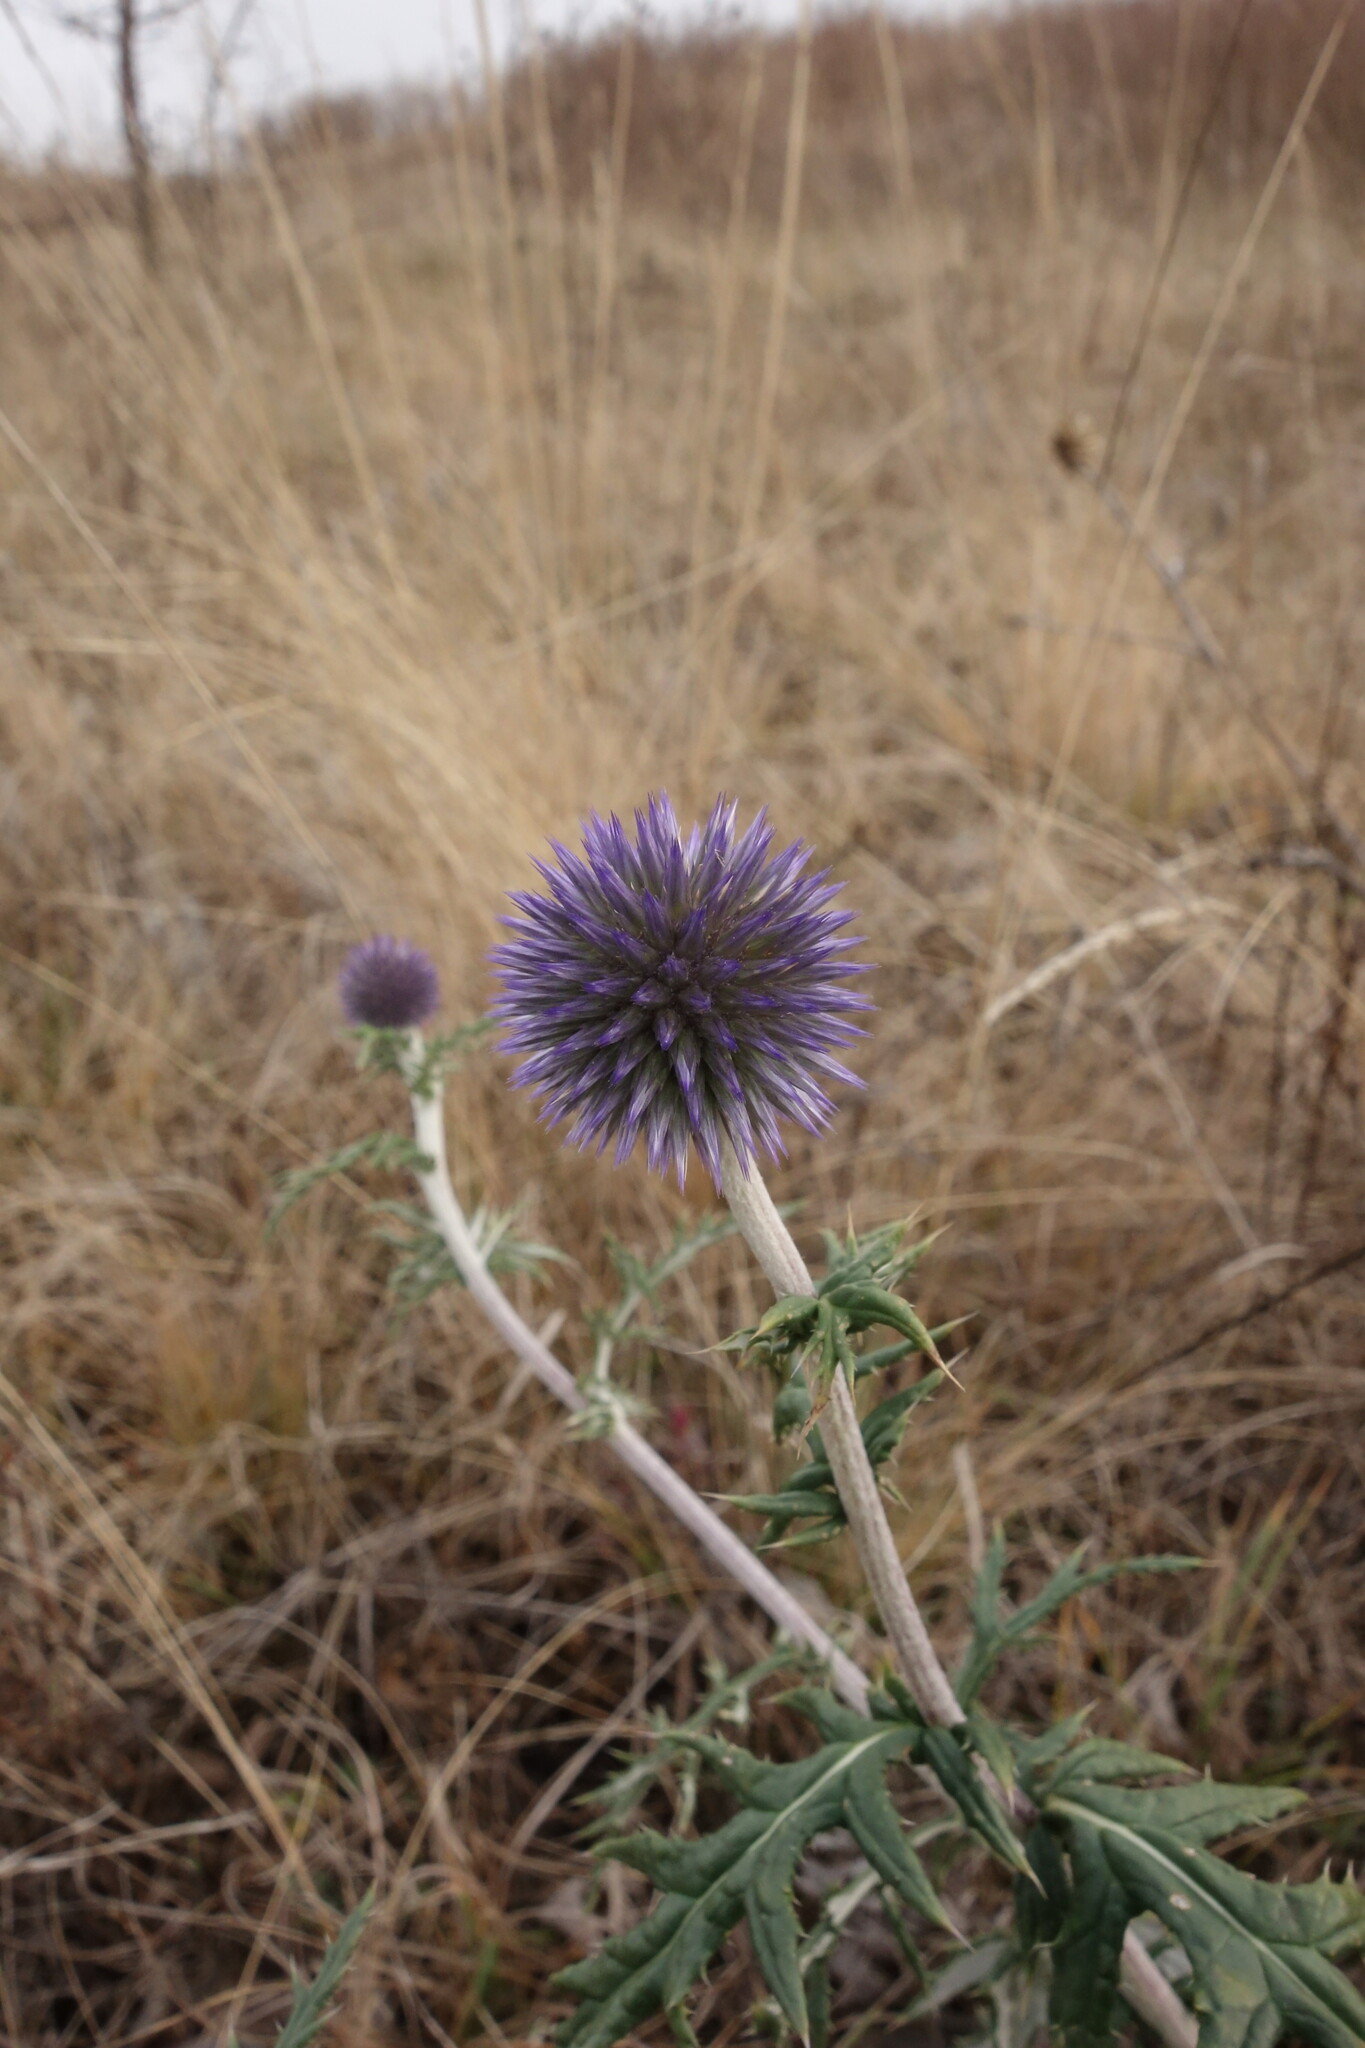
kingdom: Plantae
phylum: Tracheophyta
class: Magnoliopsida
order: Asterales
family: Asteraceae
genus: Echinops
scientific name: Echinops ritro
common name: Globe thistle
